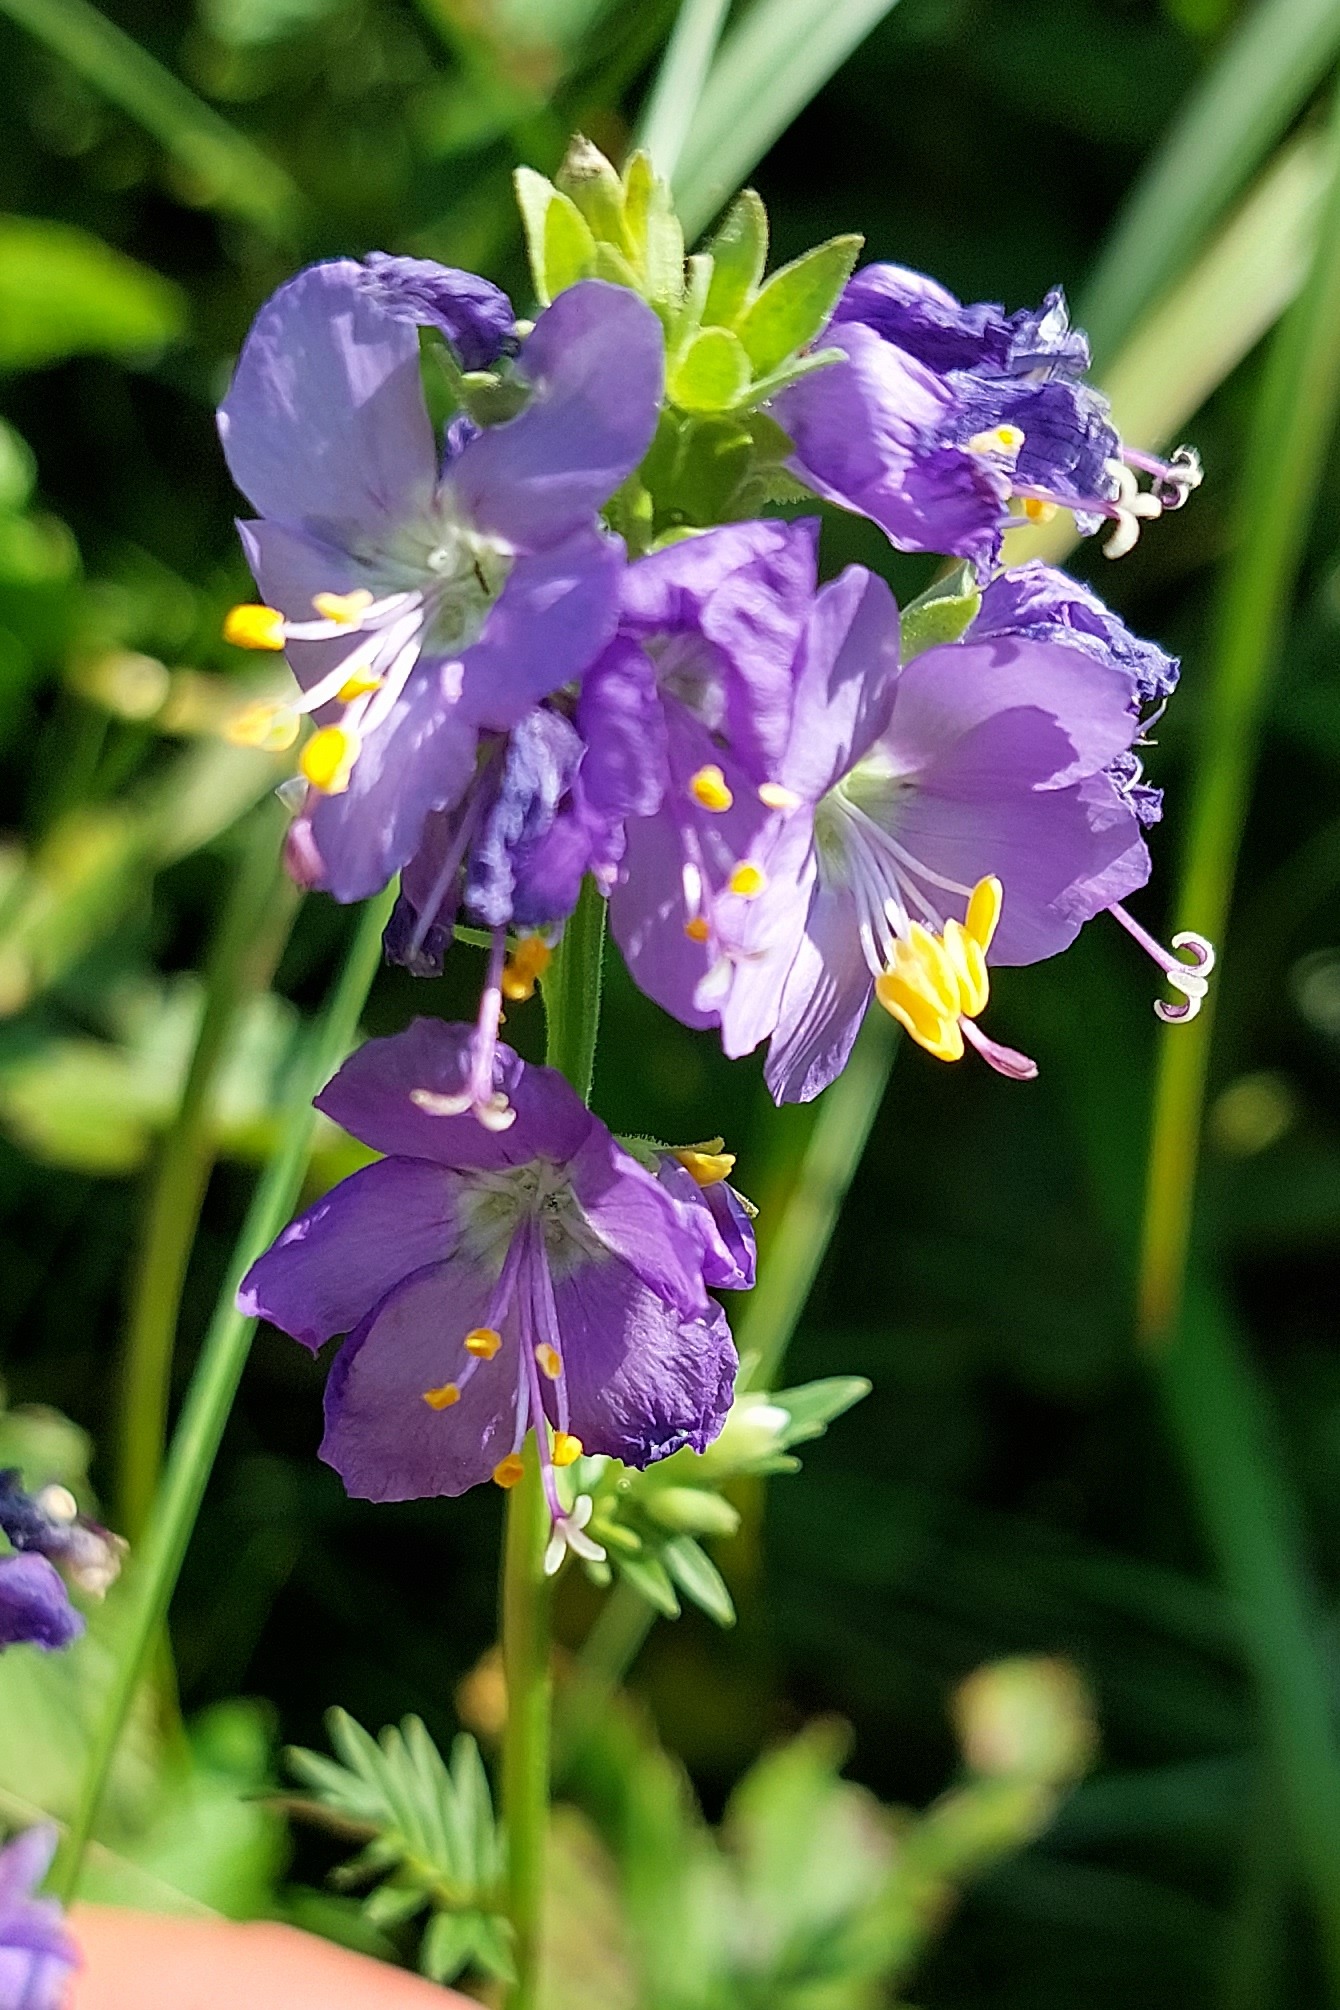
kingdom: Plantae
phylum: Tracheophyta
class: Magnoliopsida
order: Ericales
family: Polemoniaceae
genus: Polemonium
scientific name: Polemonium caeruleum
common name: Jacob's-ladder
